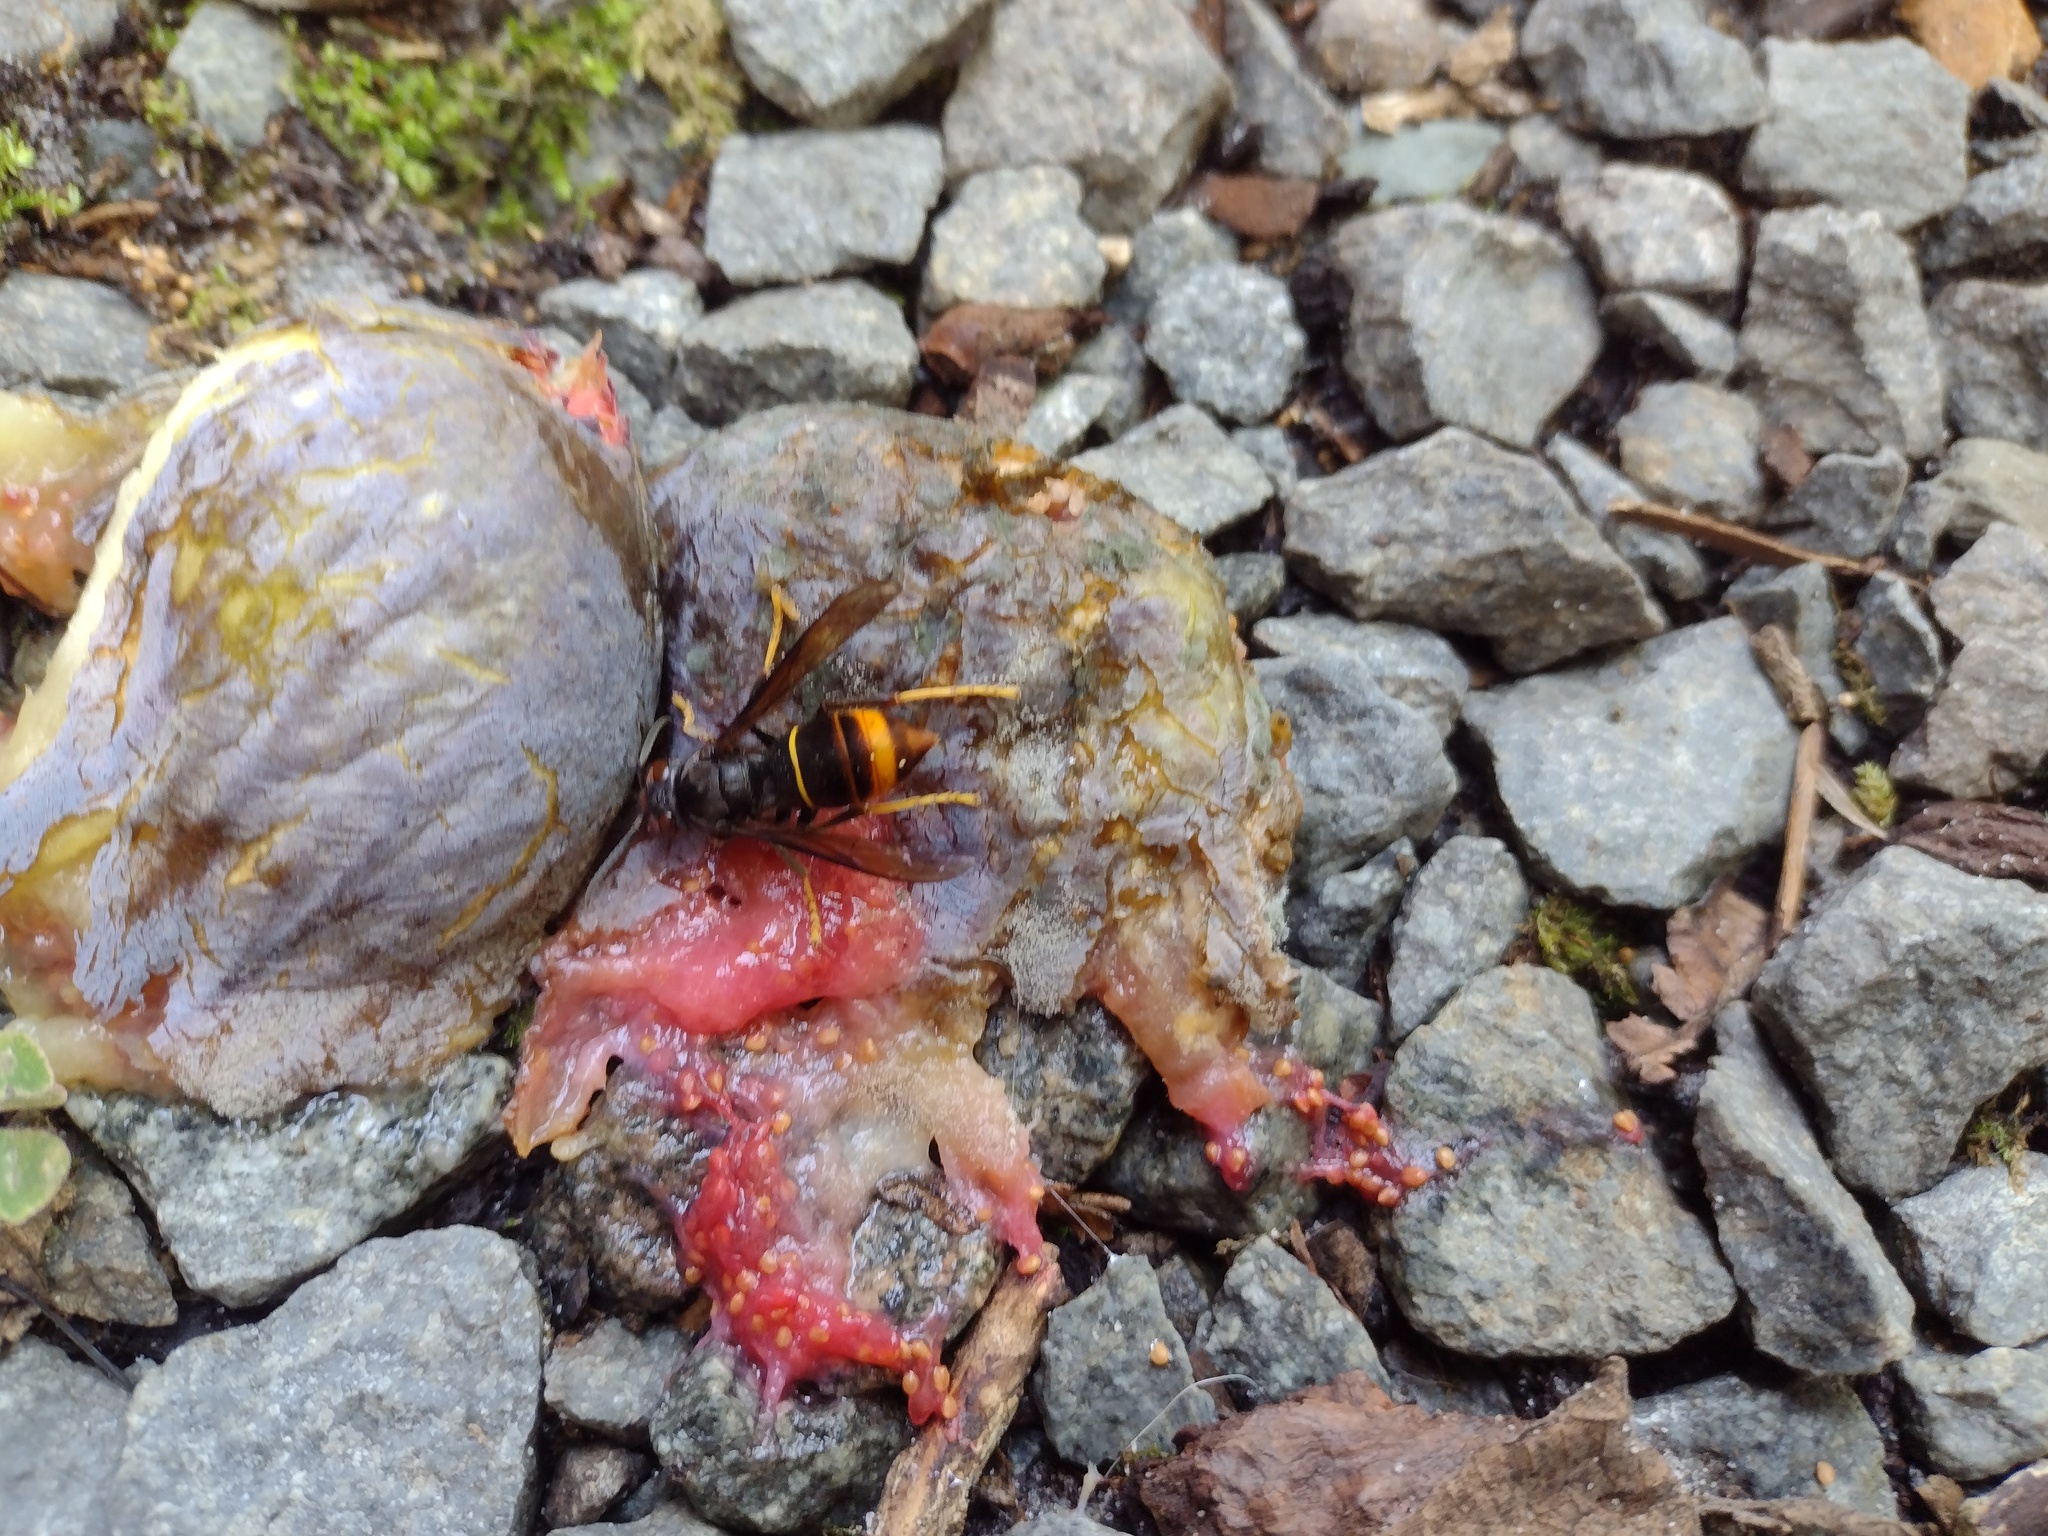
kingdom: Animalia
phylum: Arthropoda
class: Insecta
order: Hymenoptera
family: Vespidae
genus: Vespa
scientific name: Vespa velutina
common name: Asian hornet
